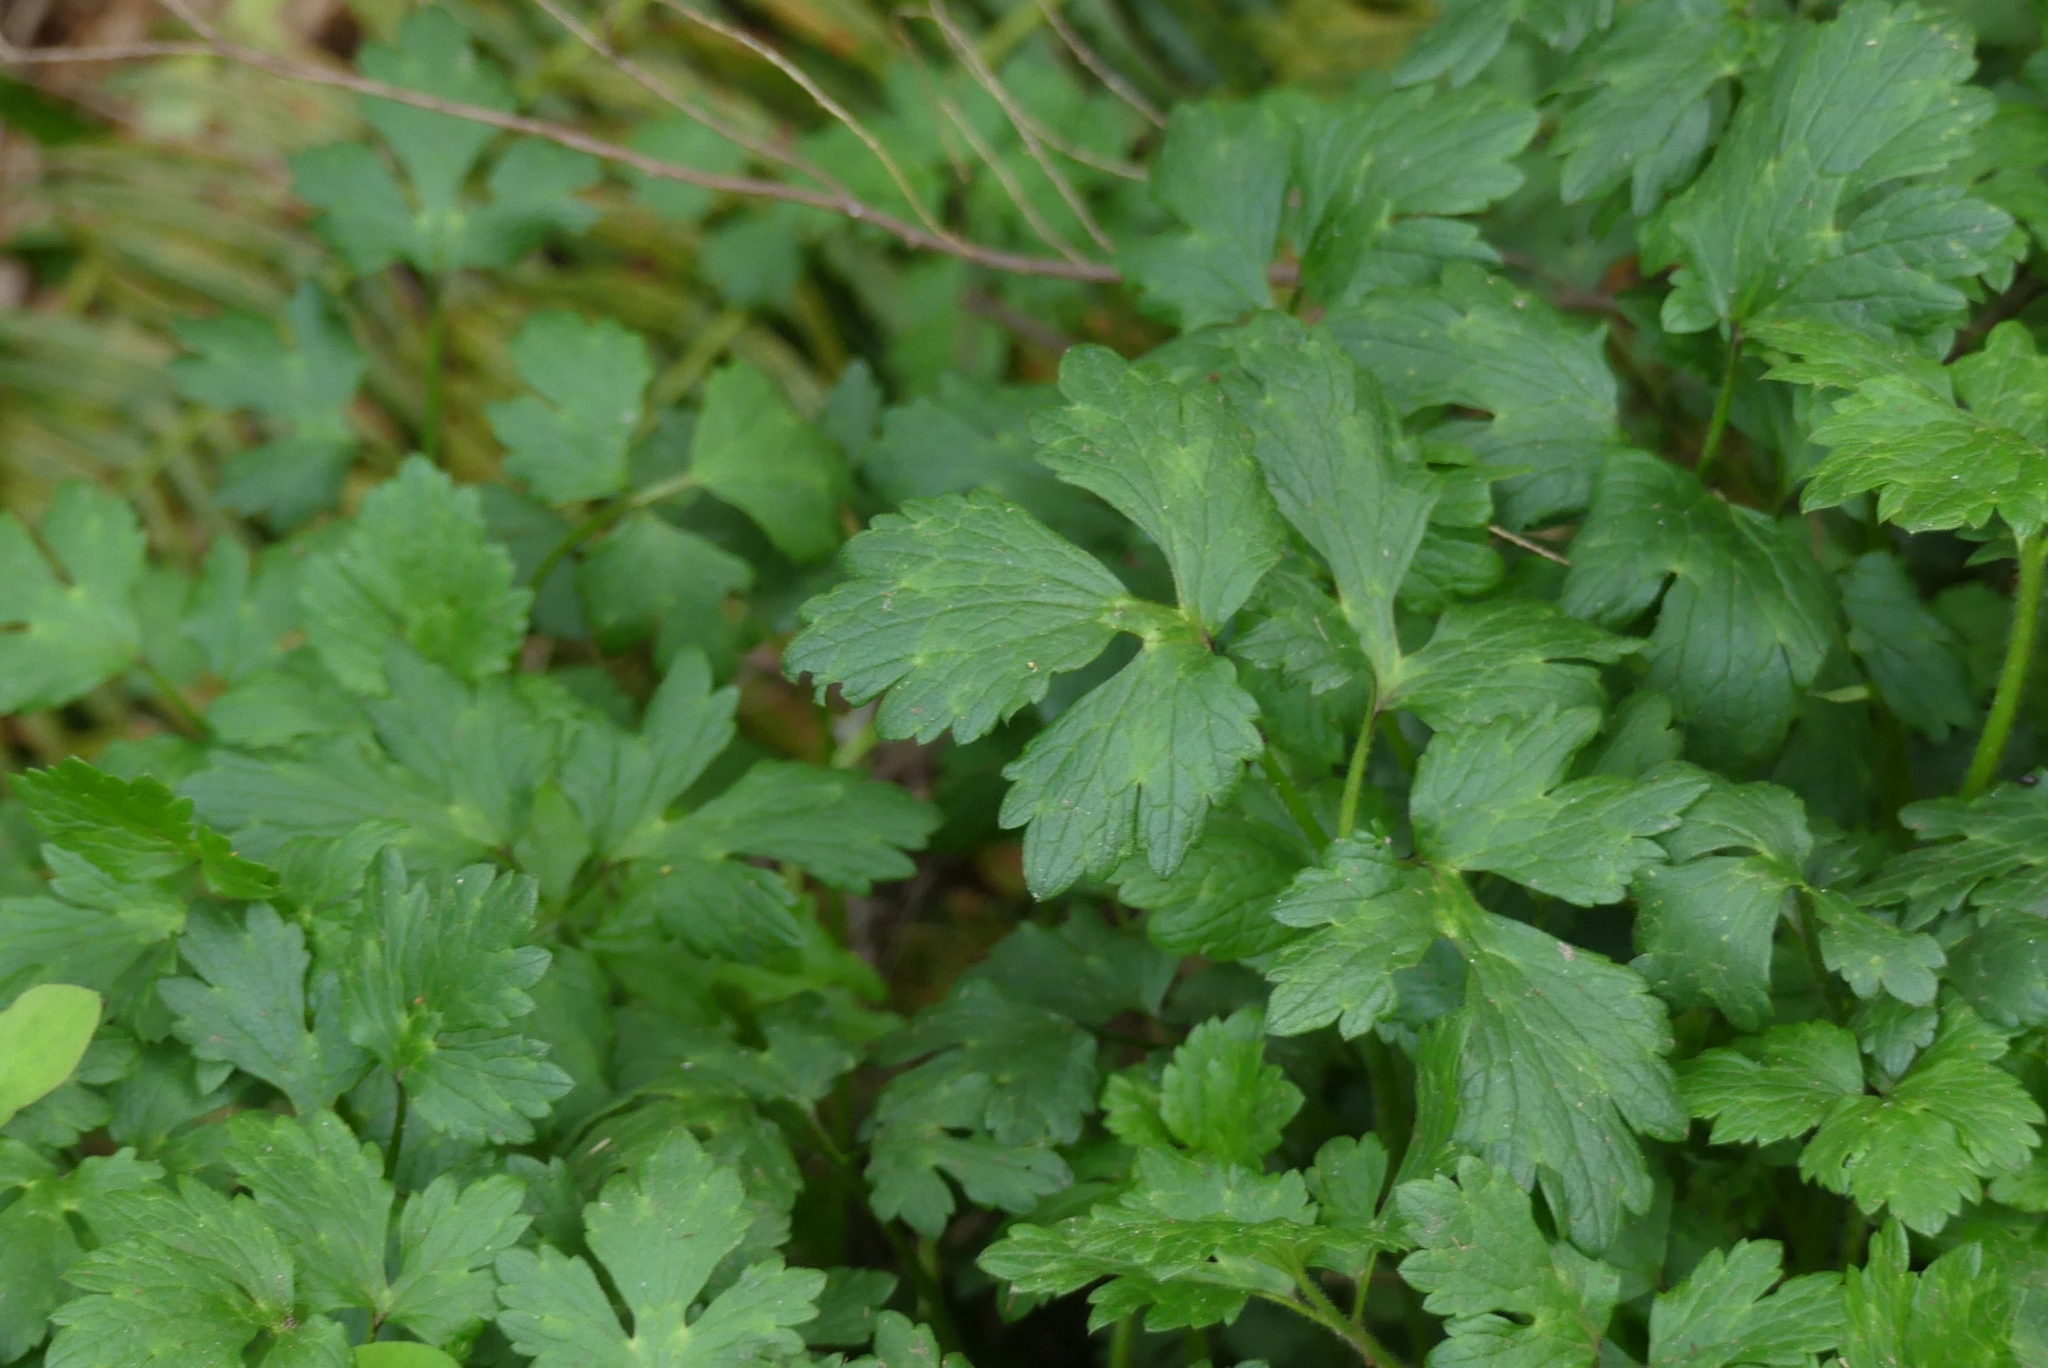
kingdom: Plantae
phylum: Tracheophyta
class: Magnoliopsida
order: Ranunculales
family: Ranunculaceae
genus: Ranunculus
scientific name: Ranunculus repens
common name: Creeping buttercup
